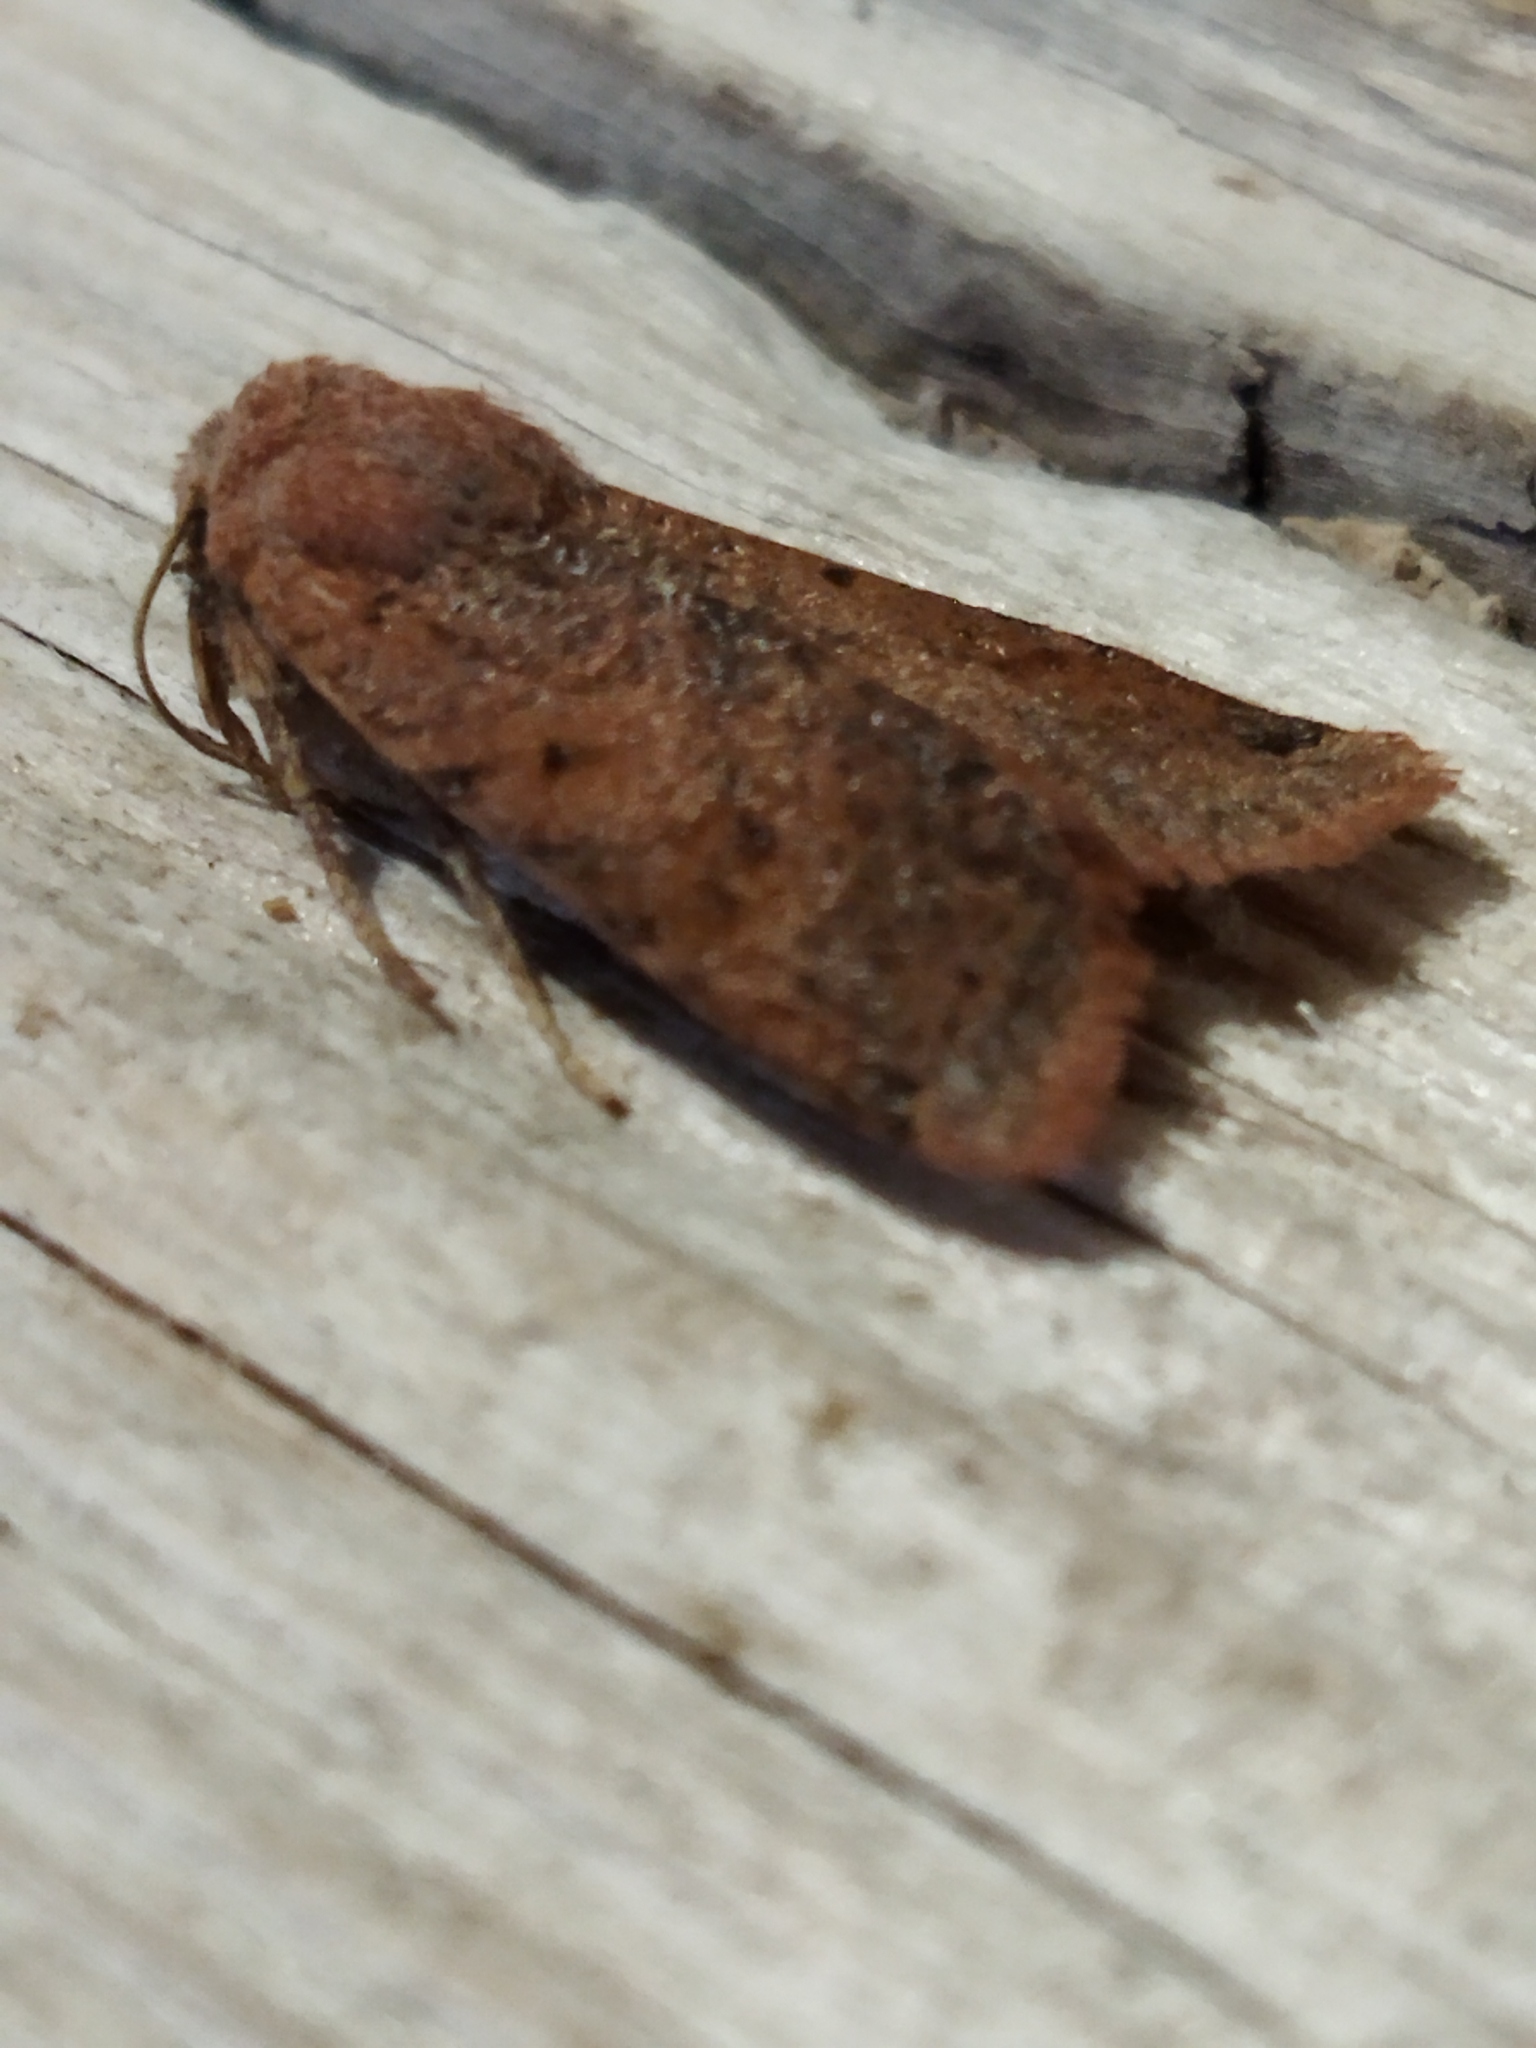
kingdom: Animalia
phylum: Arthropoda
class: Insecta
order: Lepidoptera
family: Noctuidae
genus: Agrochola
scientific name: Agrochola lychnidis
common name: Beaded chestnut
